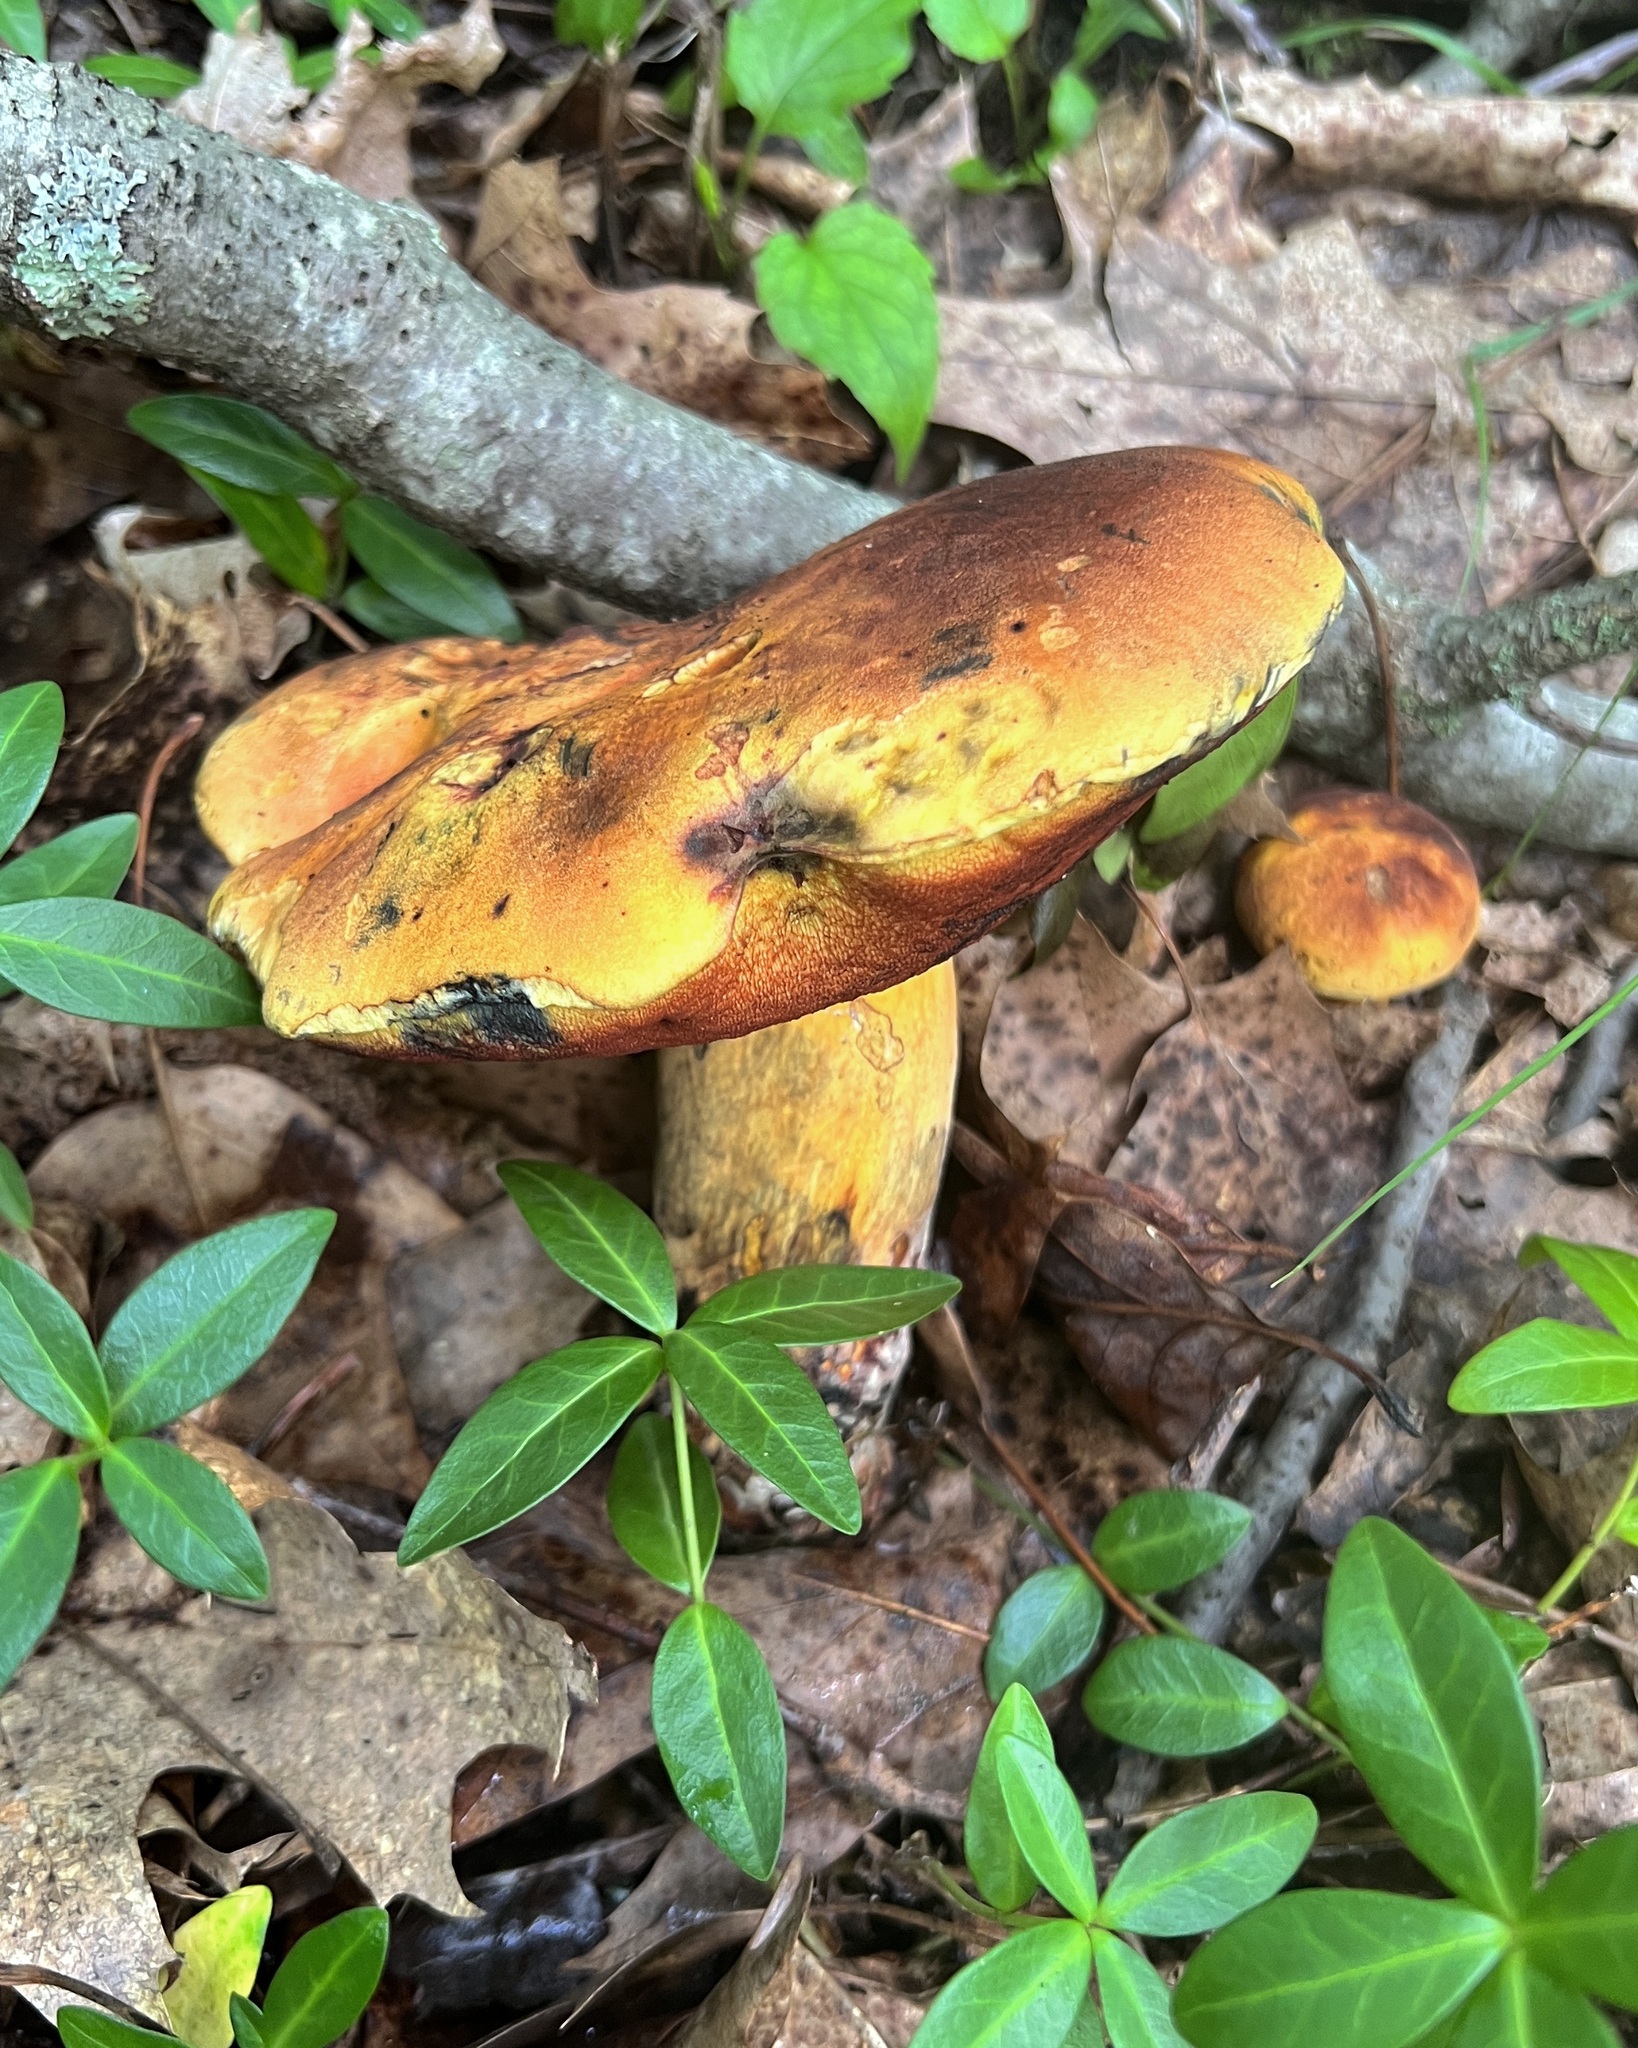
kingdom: Fungi
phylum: Basidiomycota
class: Agaricomycetes
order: Boletales
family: Boletaceae
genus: Boletus
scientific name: Boletus subvelutipes
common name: Red-mouth bolete
